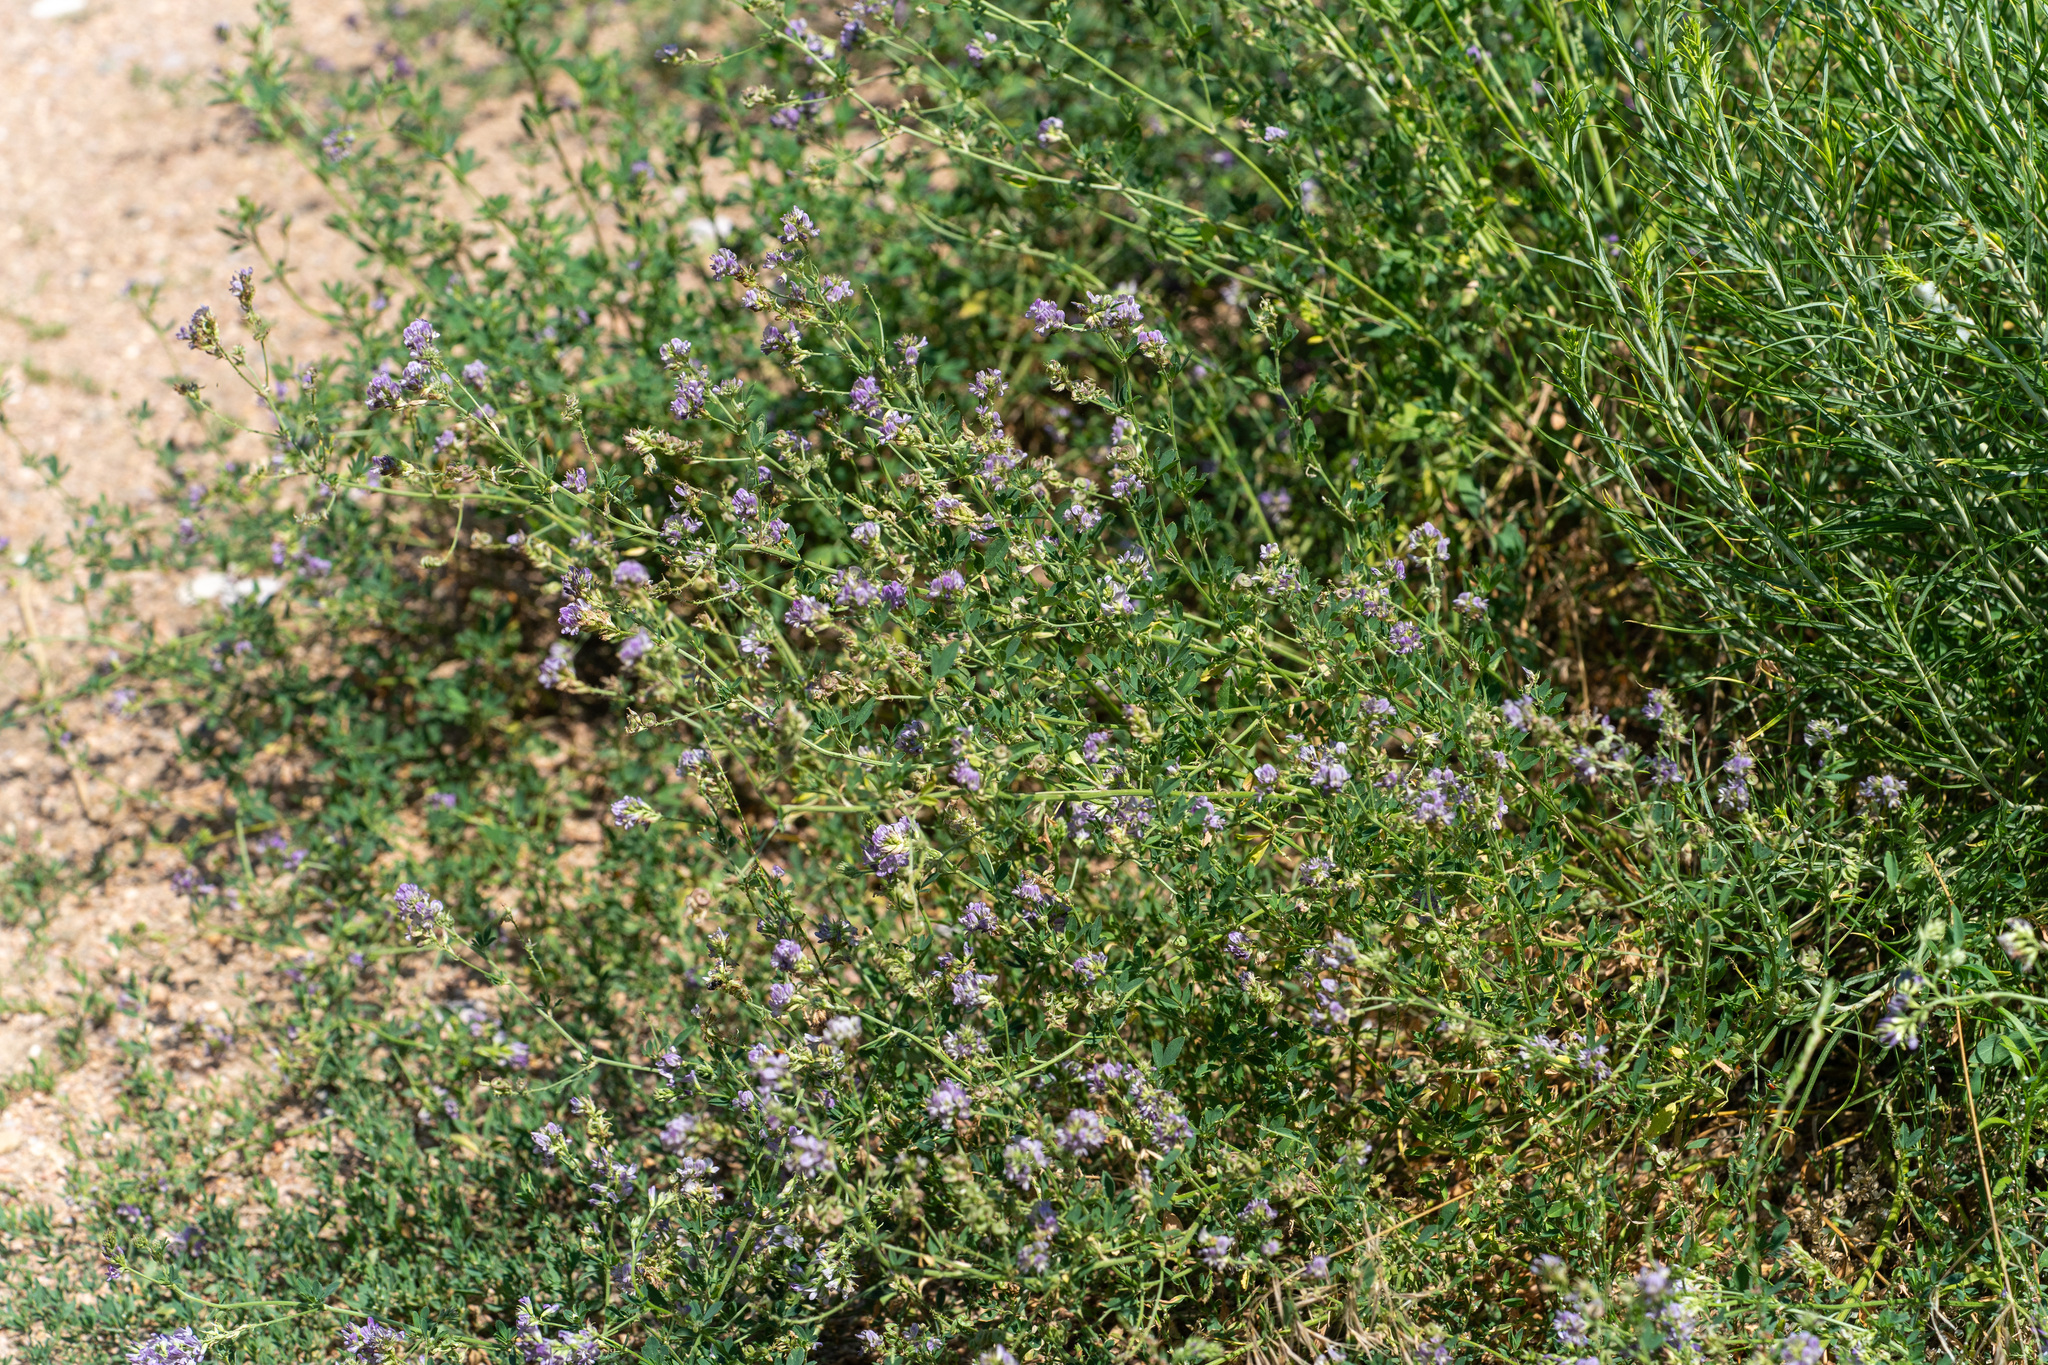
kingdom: Plantae
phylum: Tracheophyta
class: Magnoliopsida
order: Fabales
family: Fabaceae
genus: Medicago
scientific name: Medicago sativa
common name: Alfalfa
